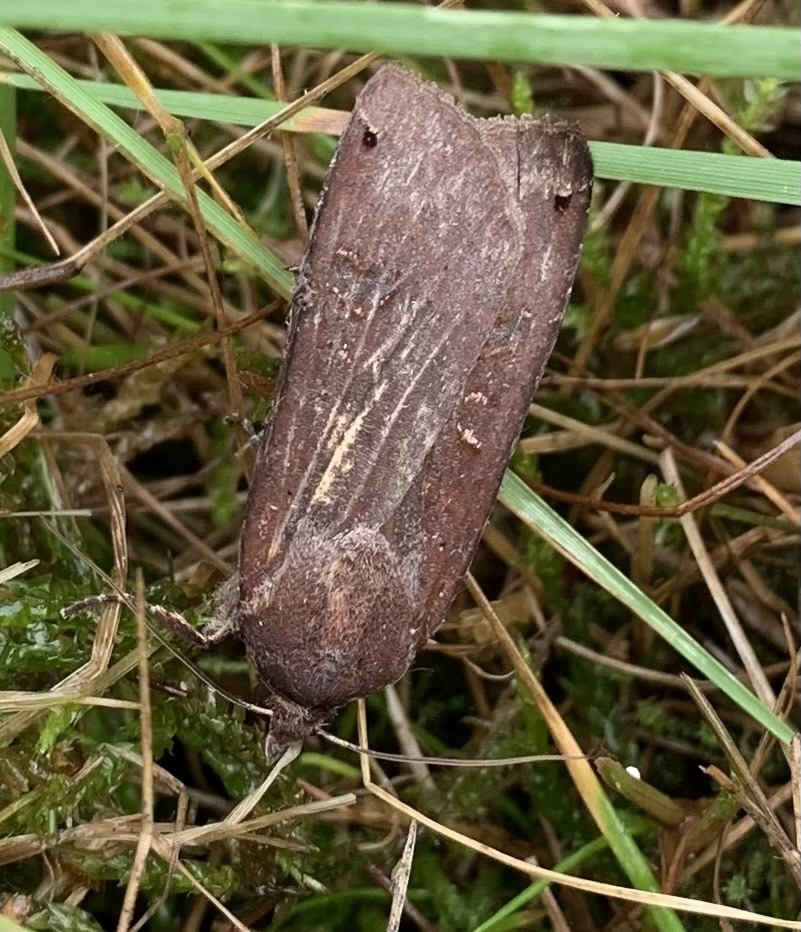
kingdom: Animalia
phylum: Arthropoda
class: Insecta
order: Lepidoptera
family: Noctuidae
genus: Noctua
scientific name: Noctua pronuba
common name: Large yellow underwing
